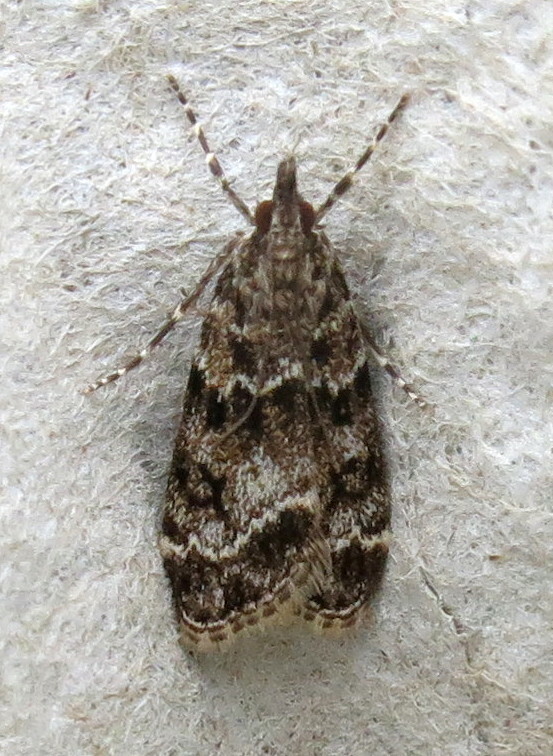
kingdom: Animalia
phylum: Arthropoda
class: Insecta
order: Lepidoptera
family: Crambidae
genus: Eudonia
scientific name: Eudonia mercurella
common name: Small grey
